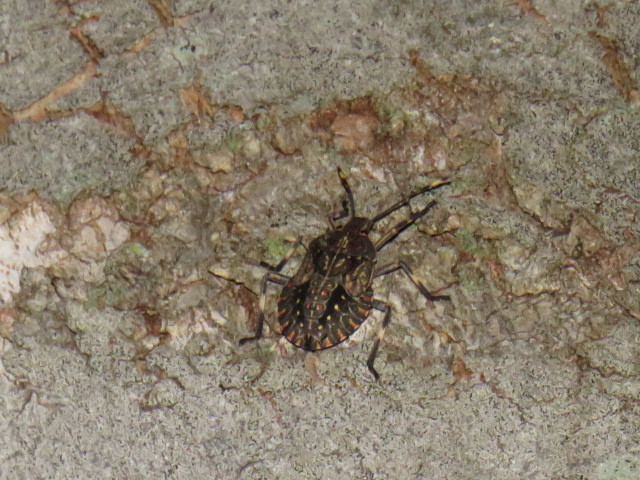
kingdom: Animalia
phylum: Arthropoda
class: Insecta
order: Hemiptera
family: Pentatomidae
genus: Coenomorpha
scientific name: Coenomorpha nervosa
